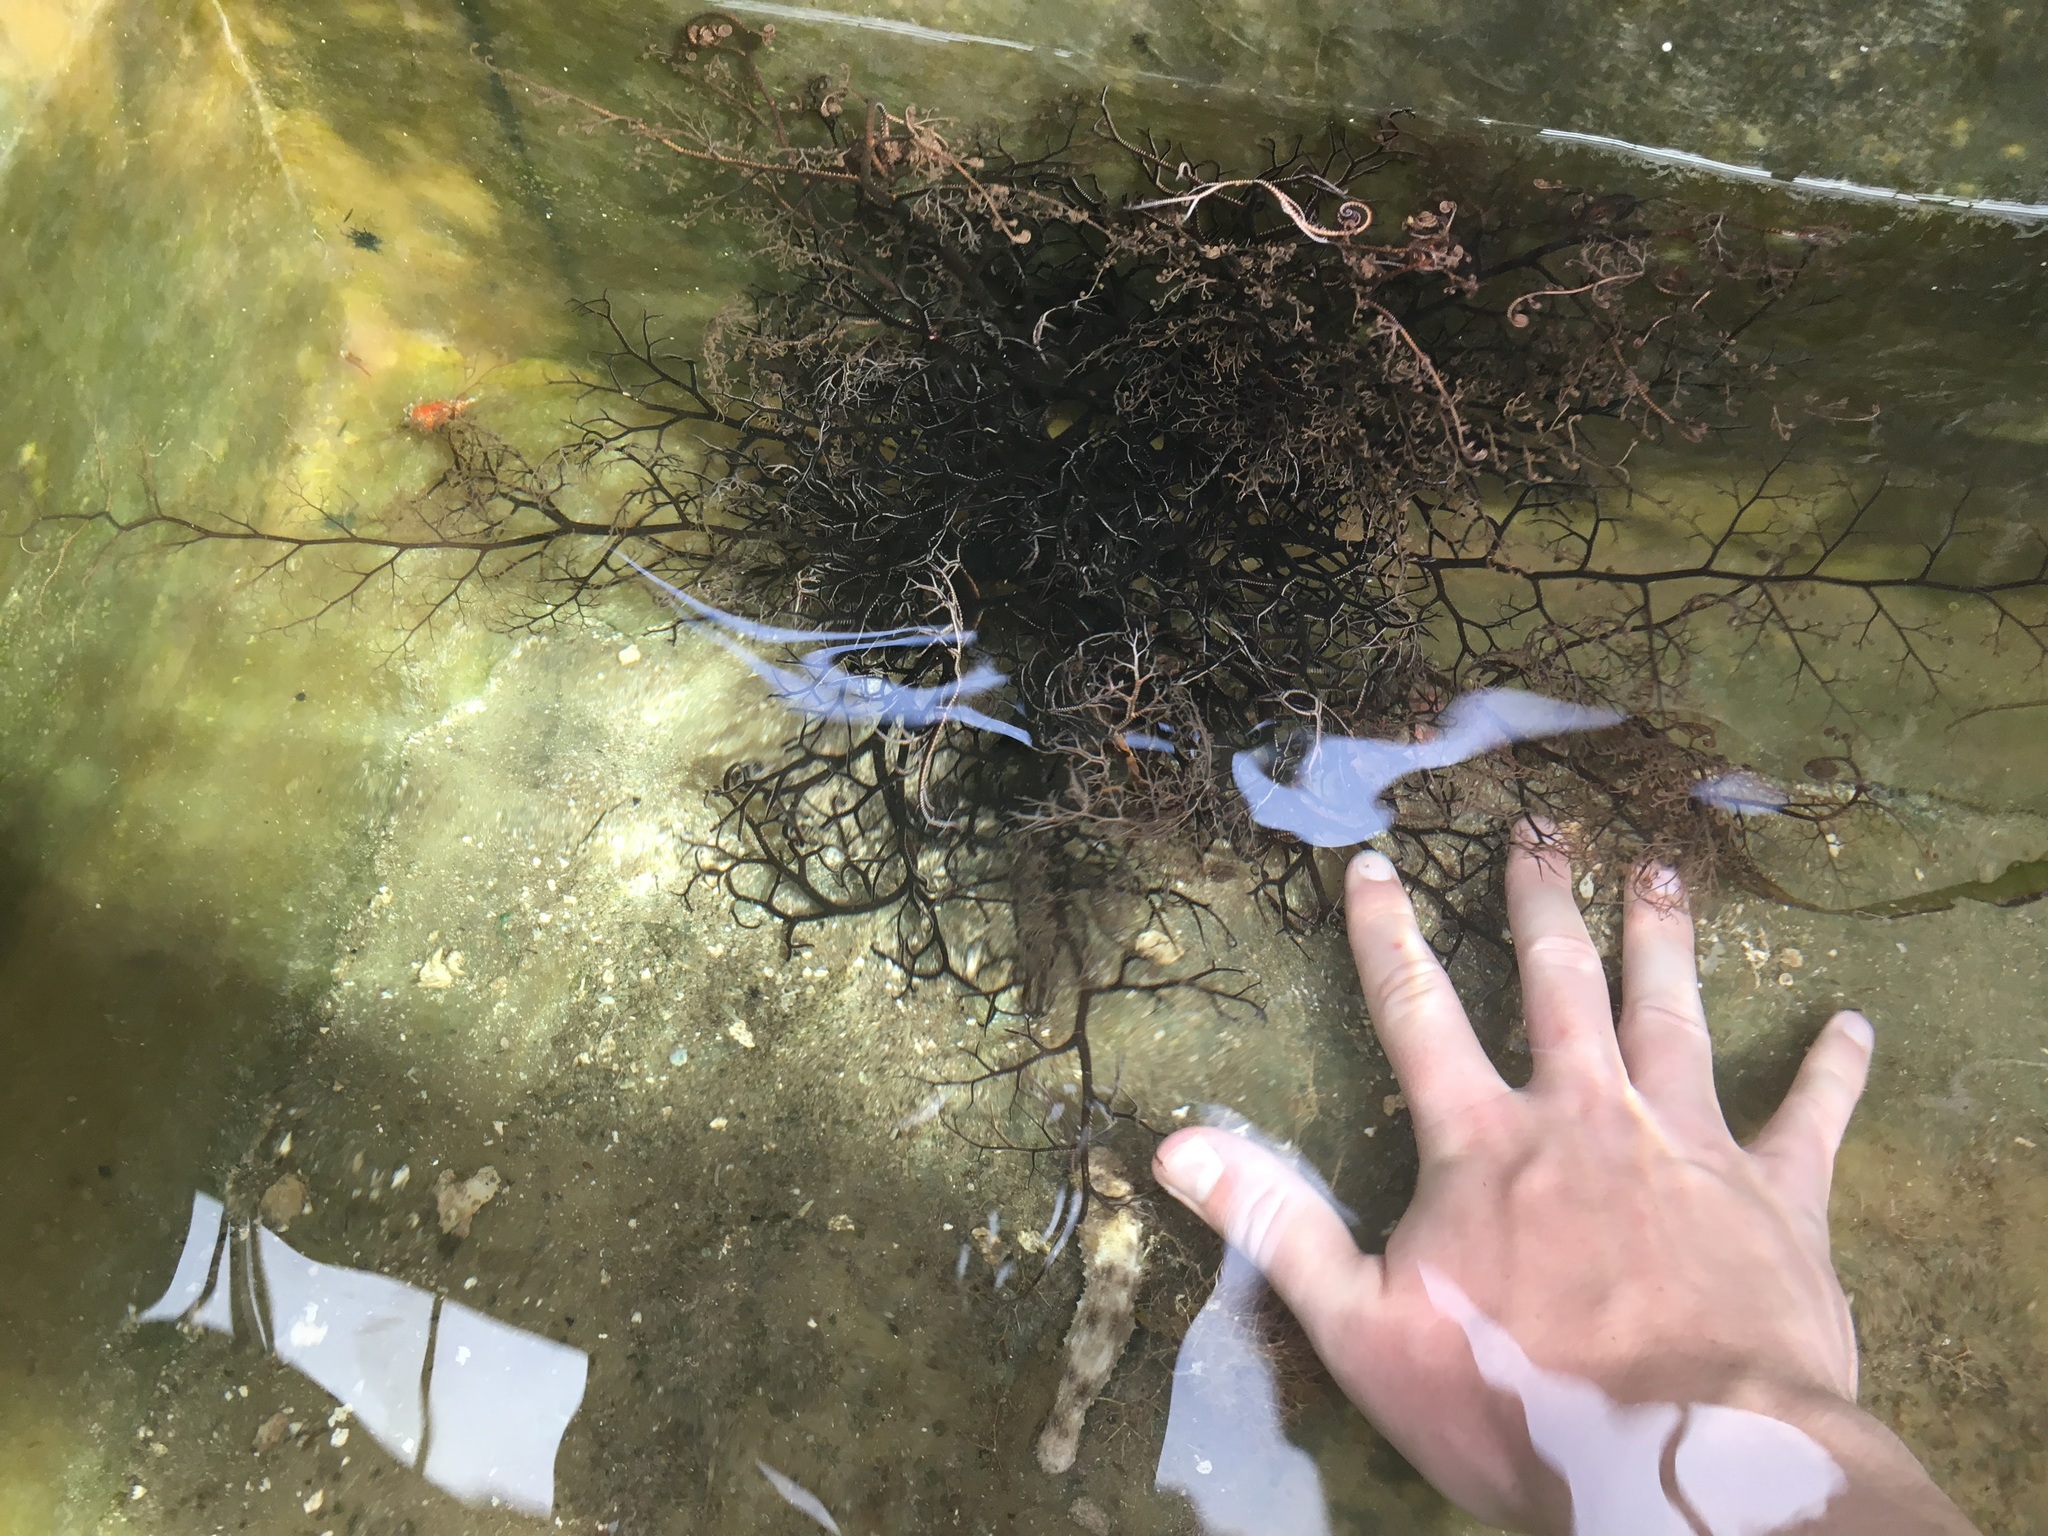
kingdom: Animalia
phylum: Echinodermata
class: Ophiuroidea
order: Euryalida
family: Gorgonocephalidae
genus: Astrophyton
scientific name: Astrophyton muricatum
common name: Basket starfish
